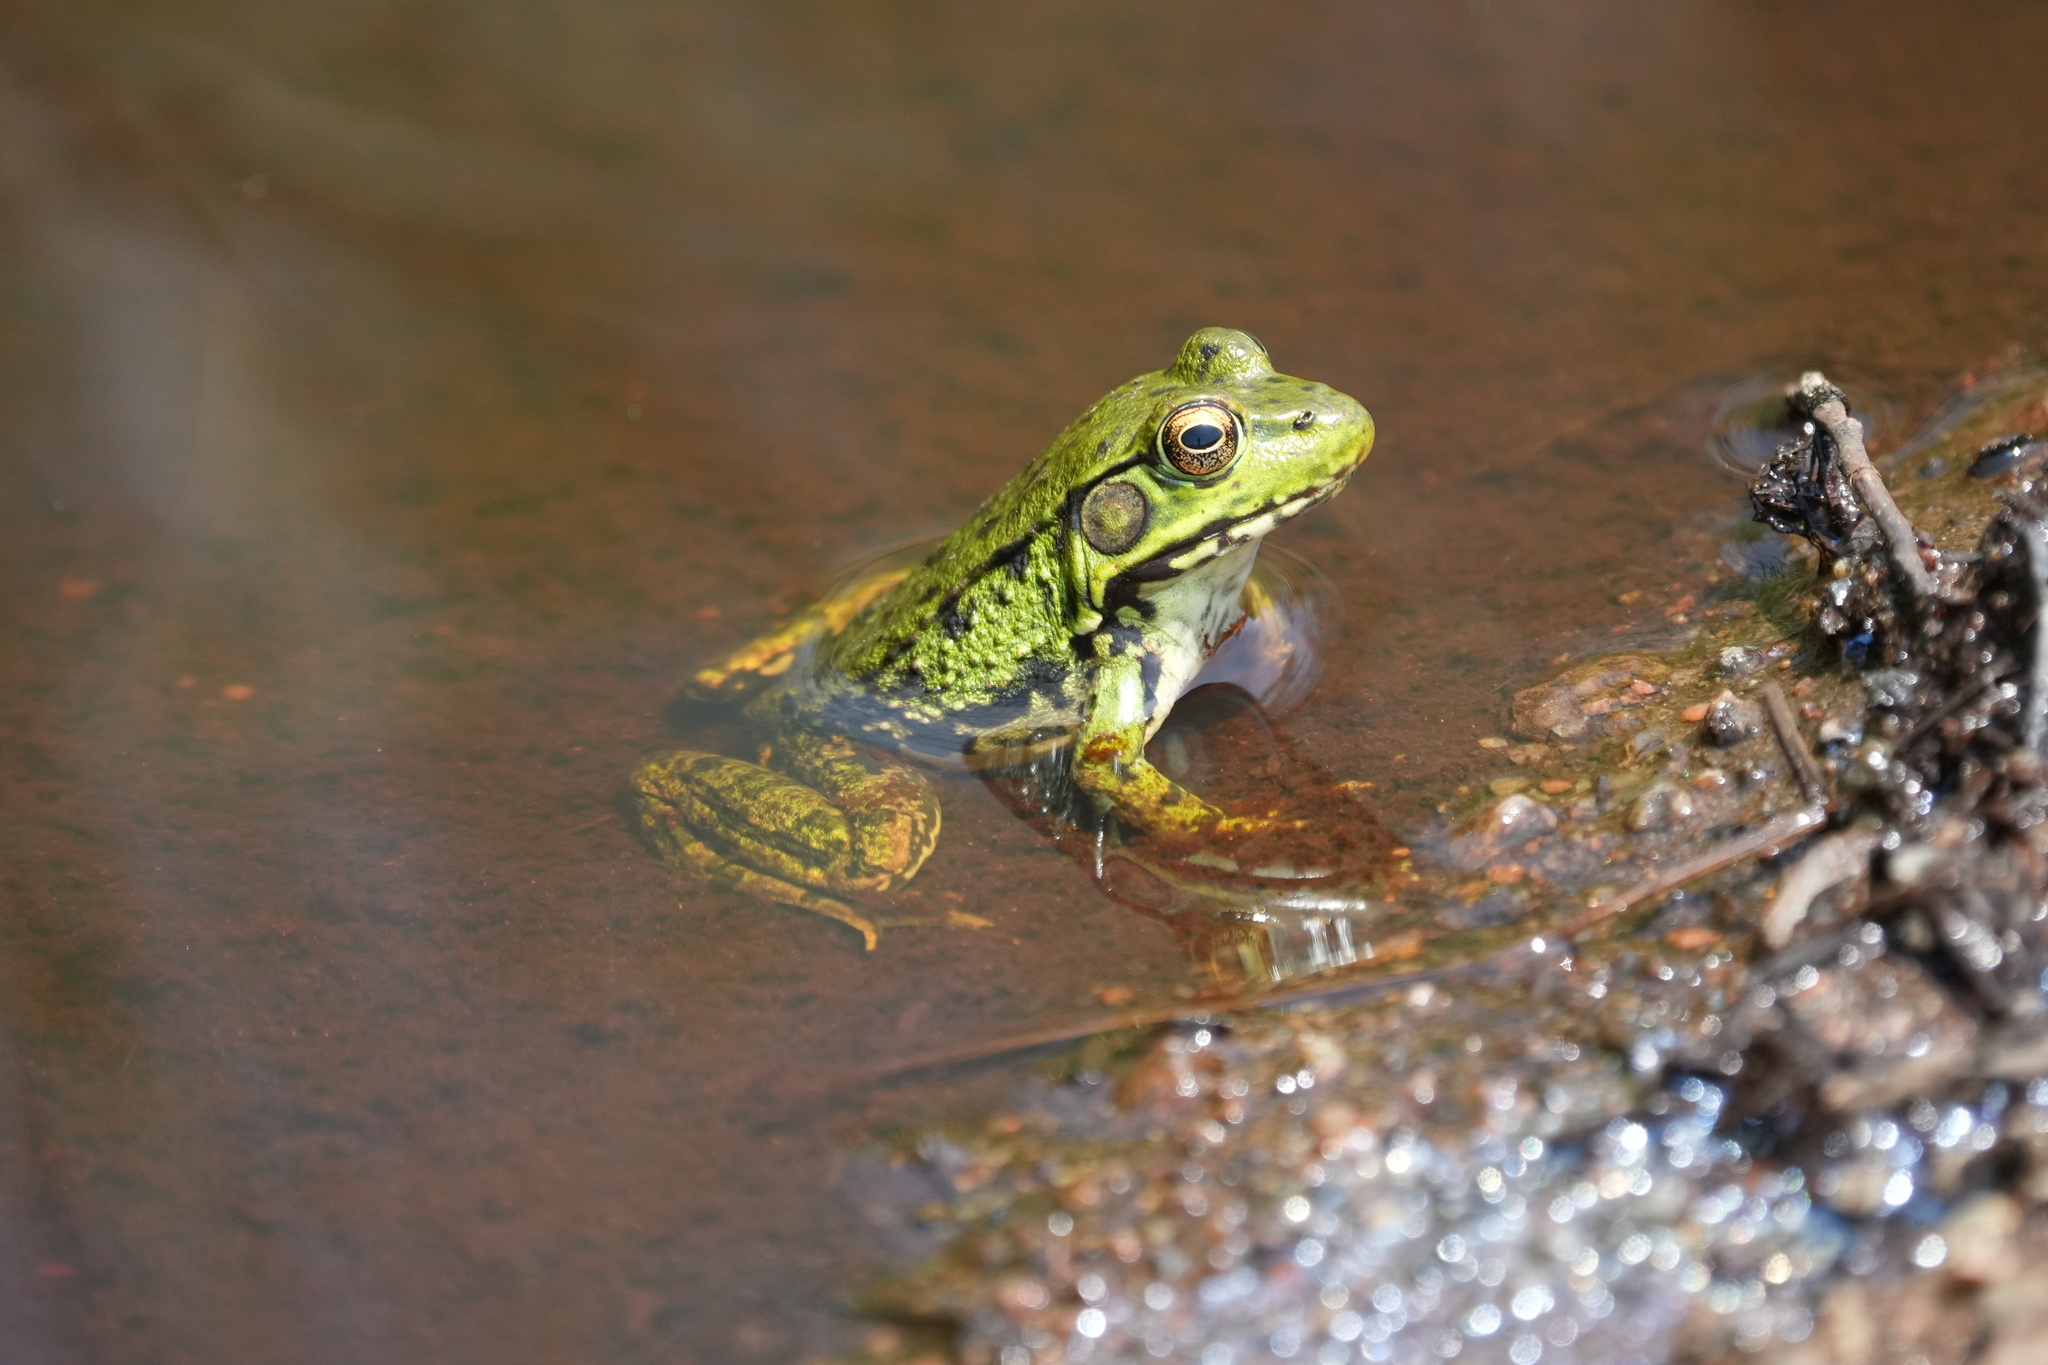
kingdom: Animalia
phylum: Chordata
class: Amphibia
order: Anura
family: Ranidae
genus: Lithobates
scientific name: Lithobates clamitans
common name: Green frog
